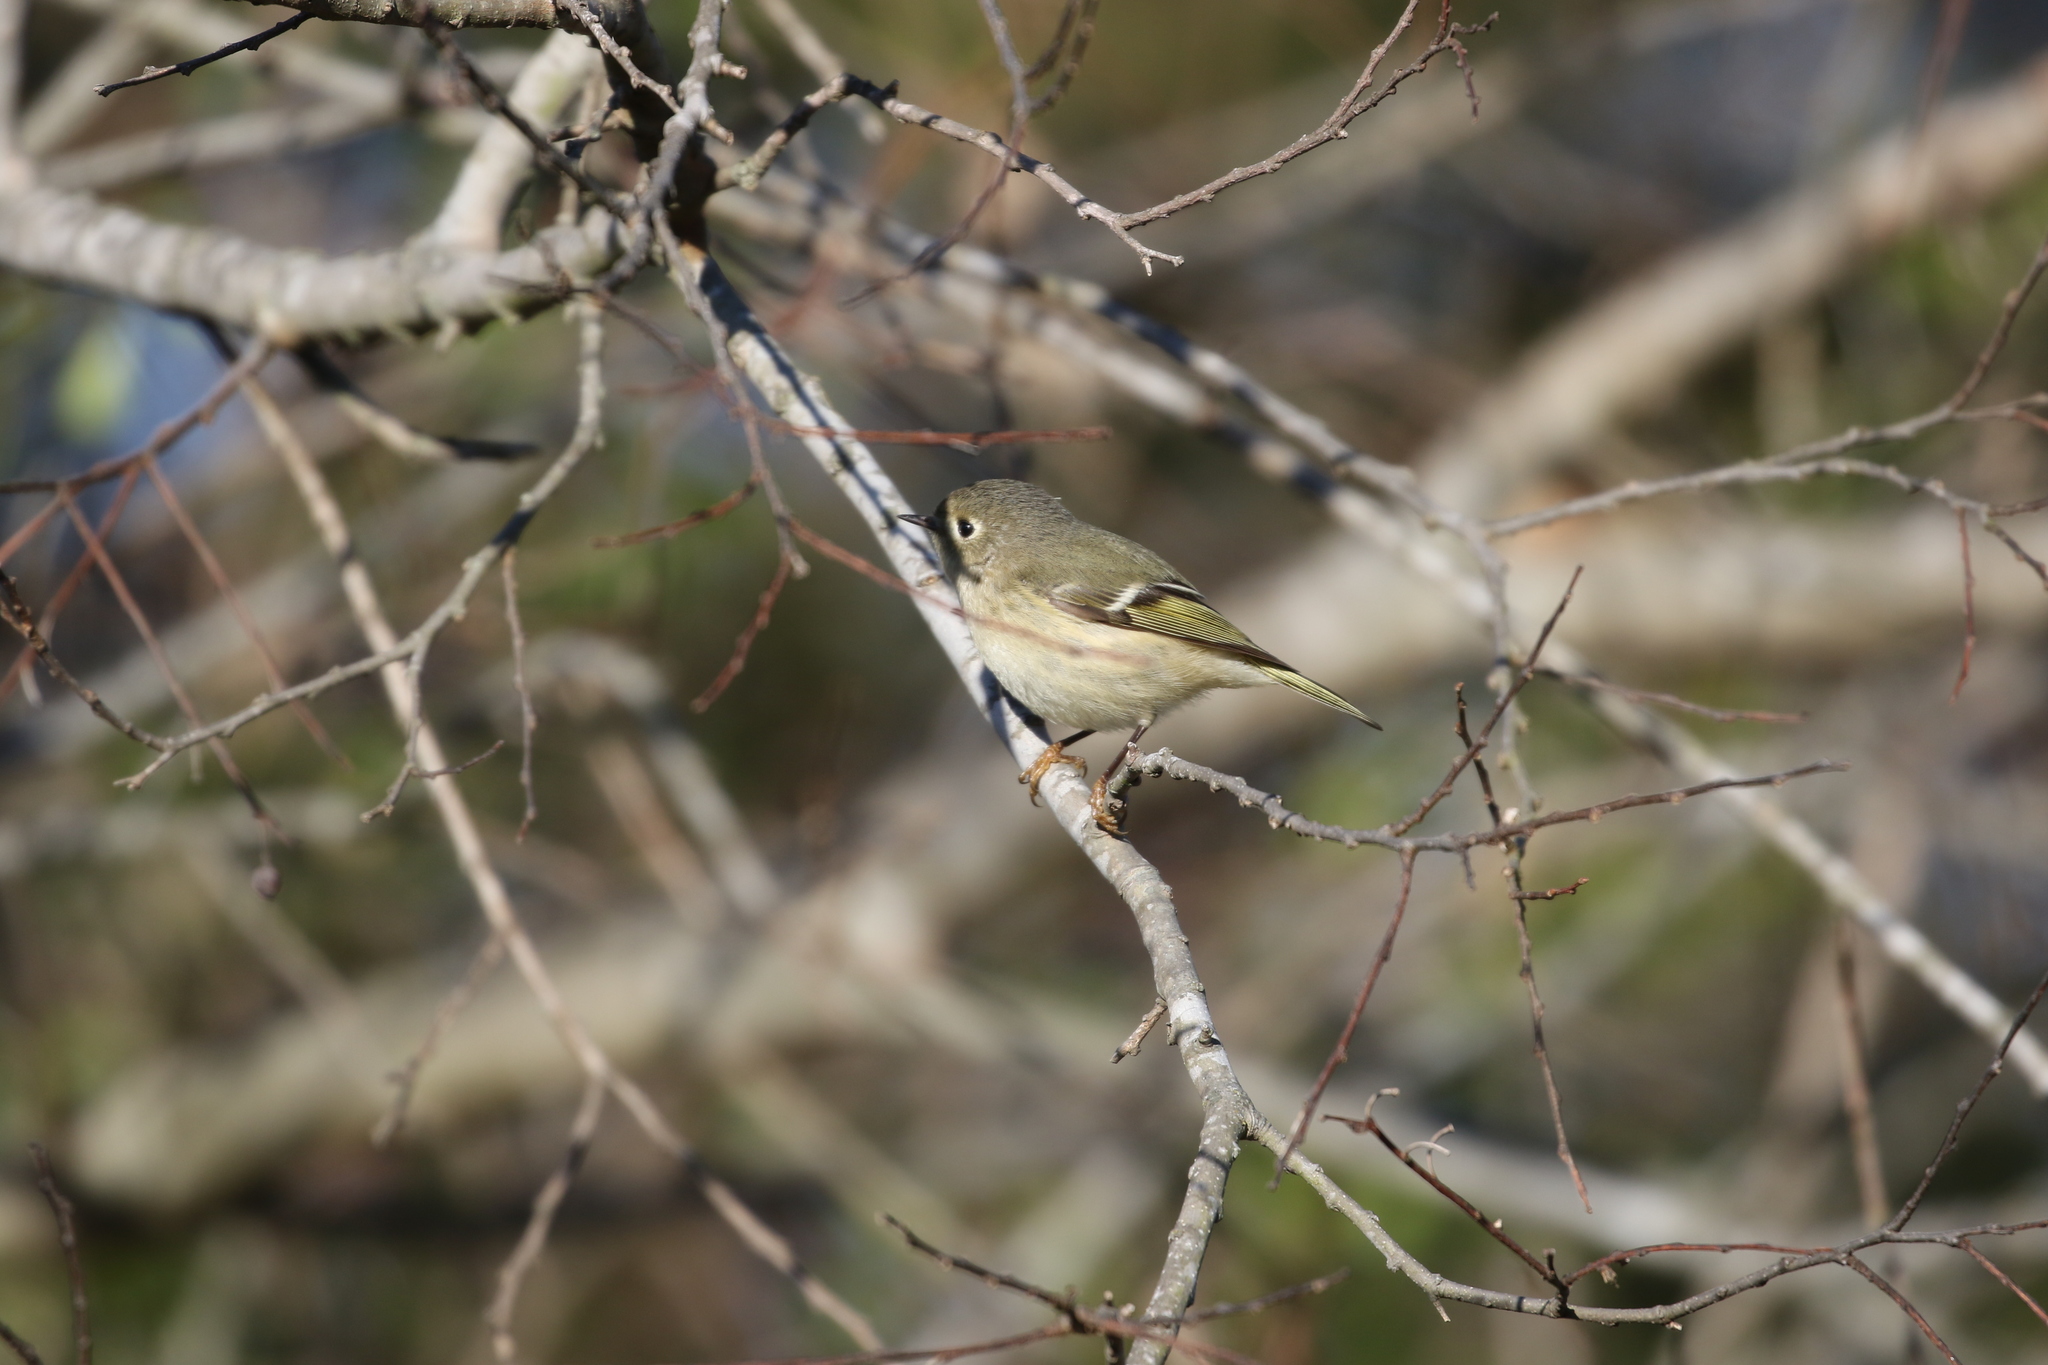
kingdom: Animalia
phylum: Chordata
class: Aves
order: Passeriformes
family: Regulidae
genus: Regulus
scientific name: Regulus calendula
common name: Ruby-crowned kinglet
